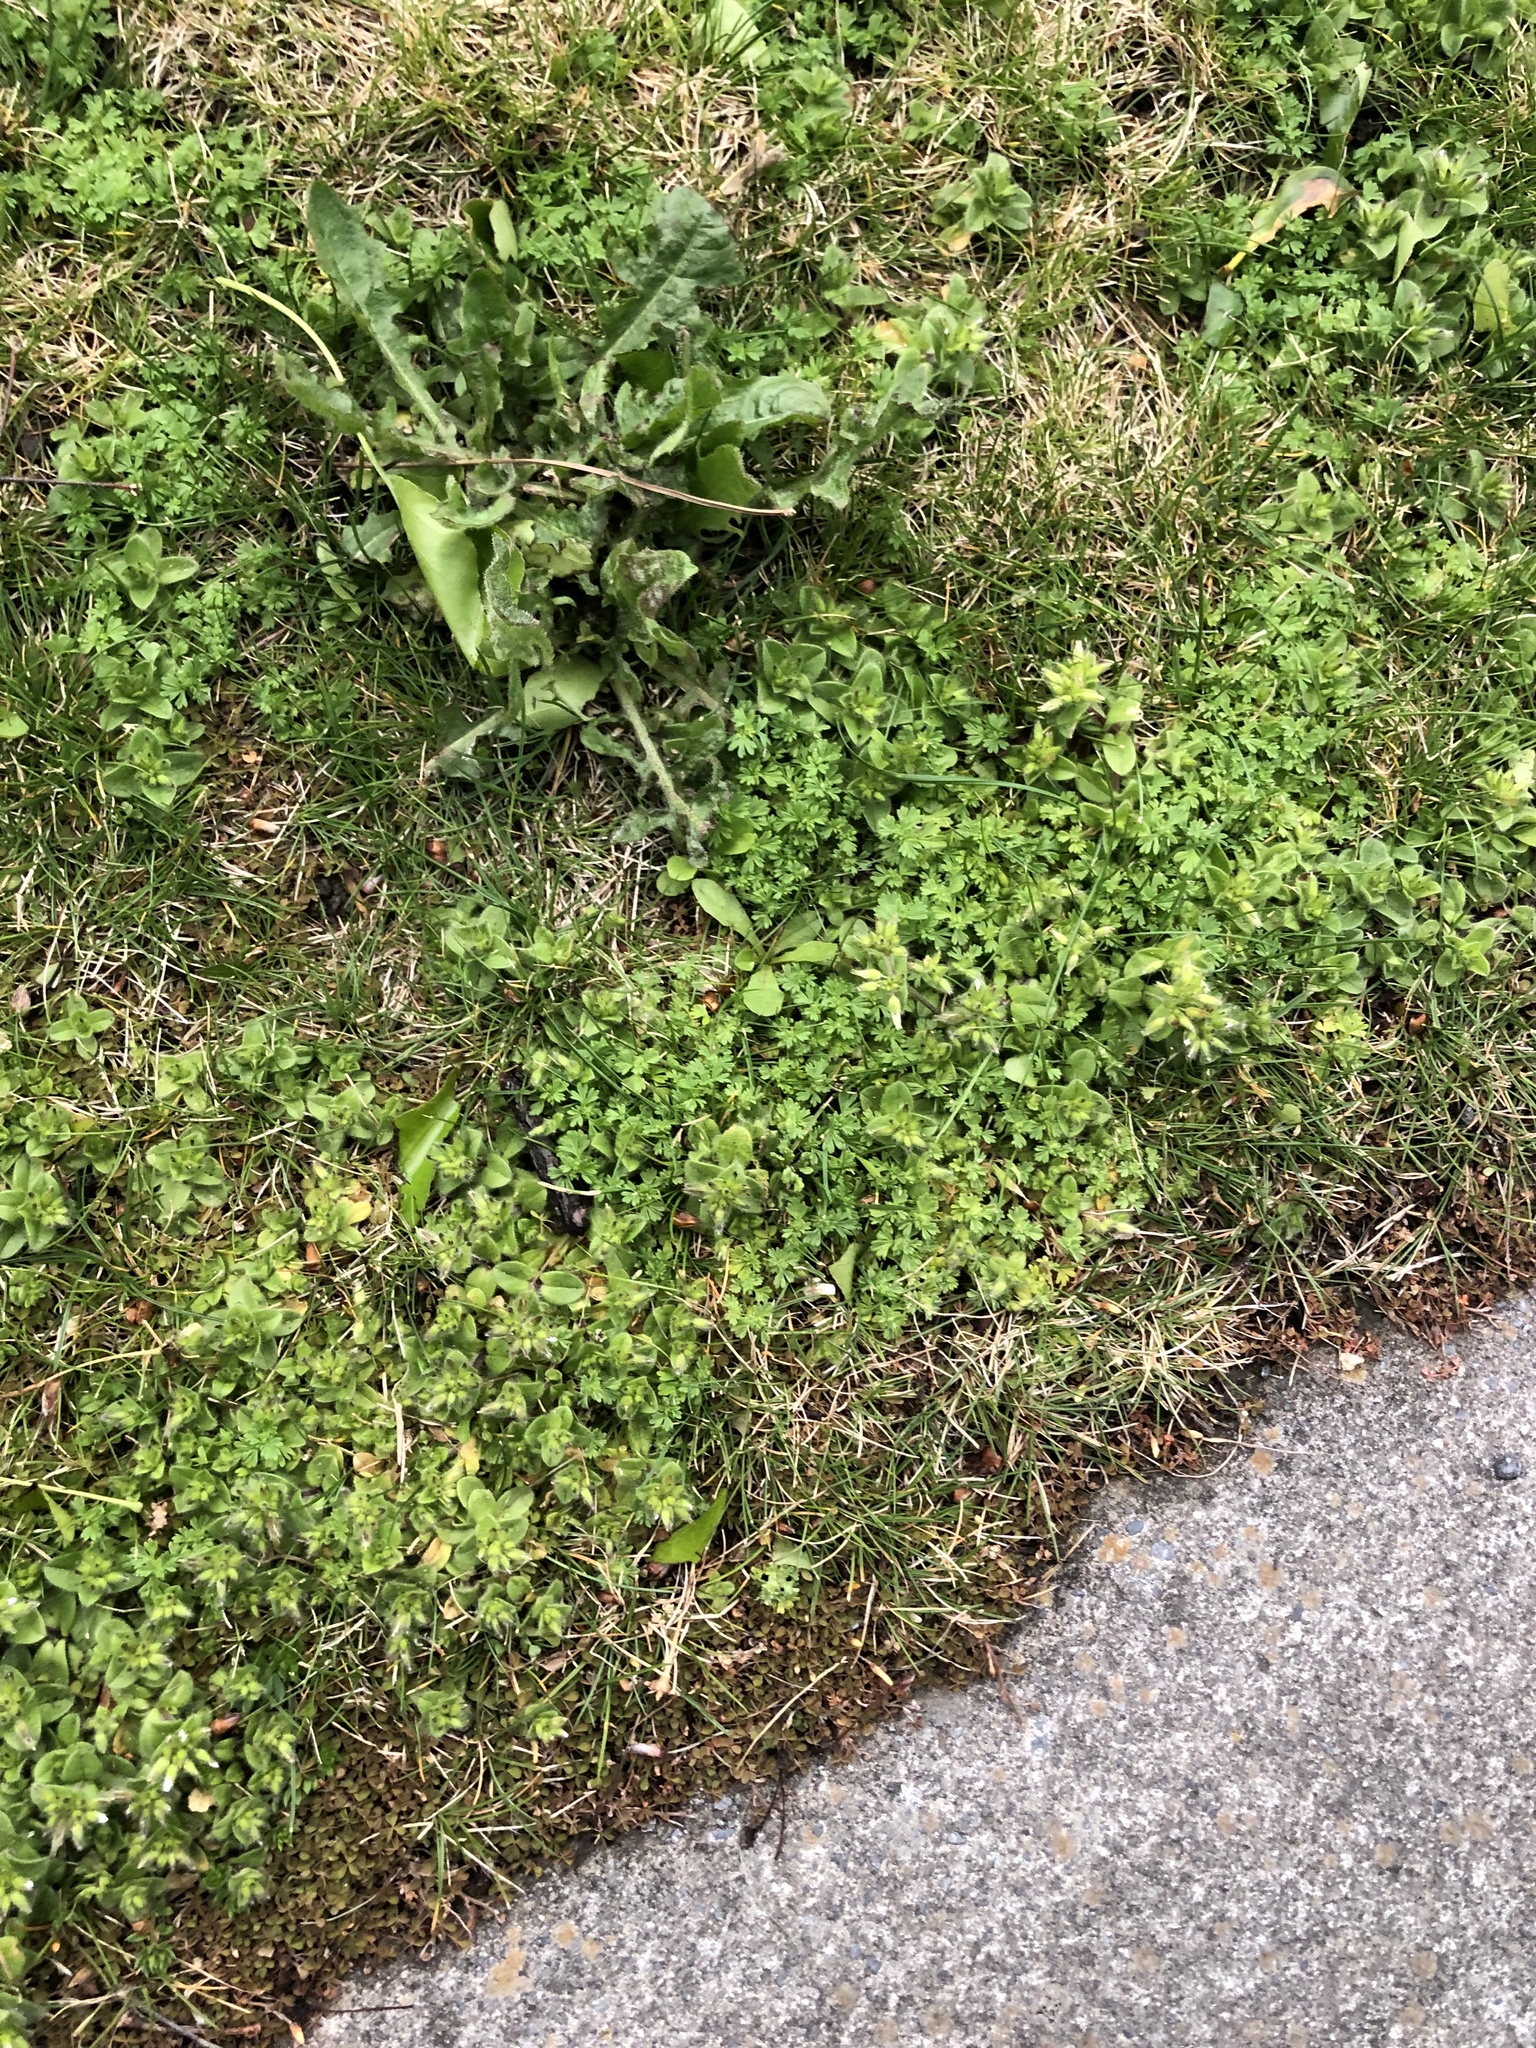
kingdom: Plantae
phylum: Tracheophyta
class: Magnoliopsida
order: Rosales
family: Rosaceae
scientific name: Rosaceae
